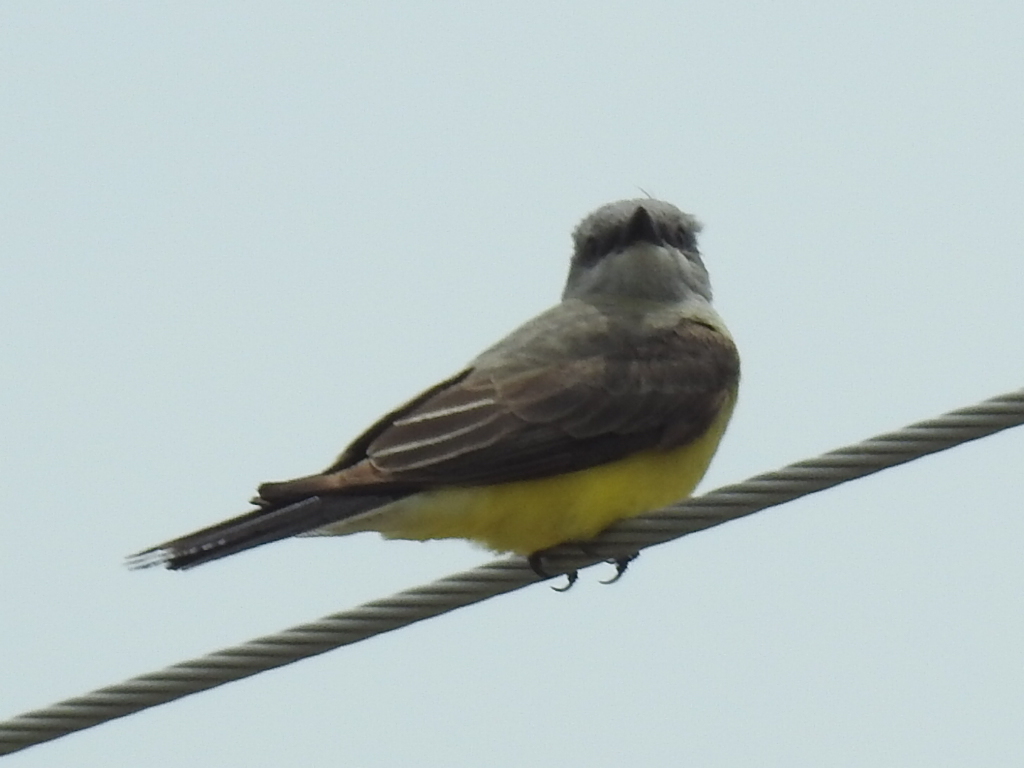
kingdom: Animalia
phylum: Chordata
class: Aves
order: Passeriformes
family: Tyrannidae
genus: Tyrannus
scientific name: Tyrannus verticalis
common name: Western kingbird
